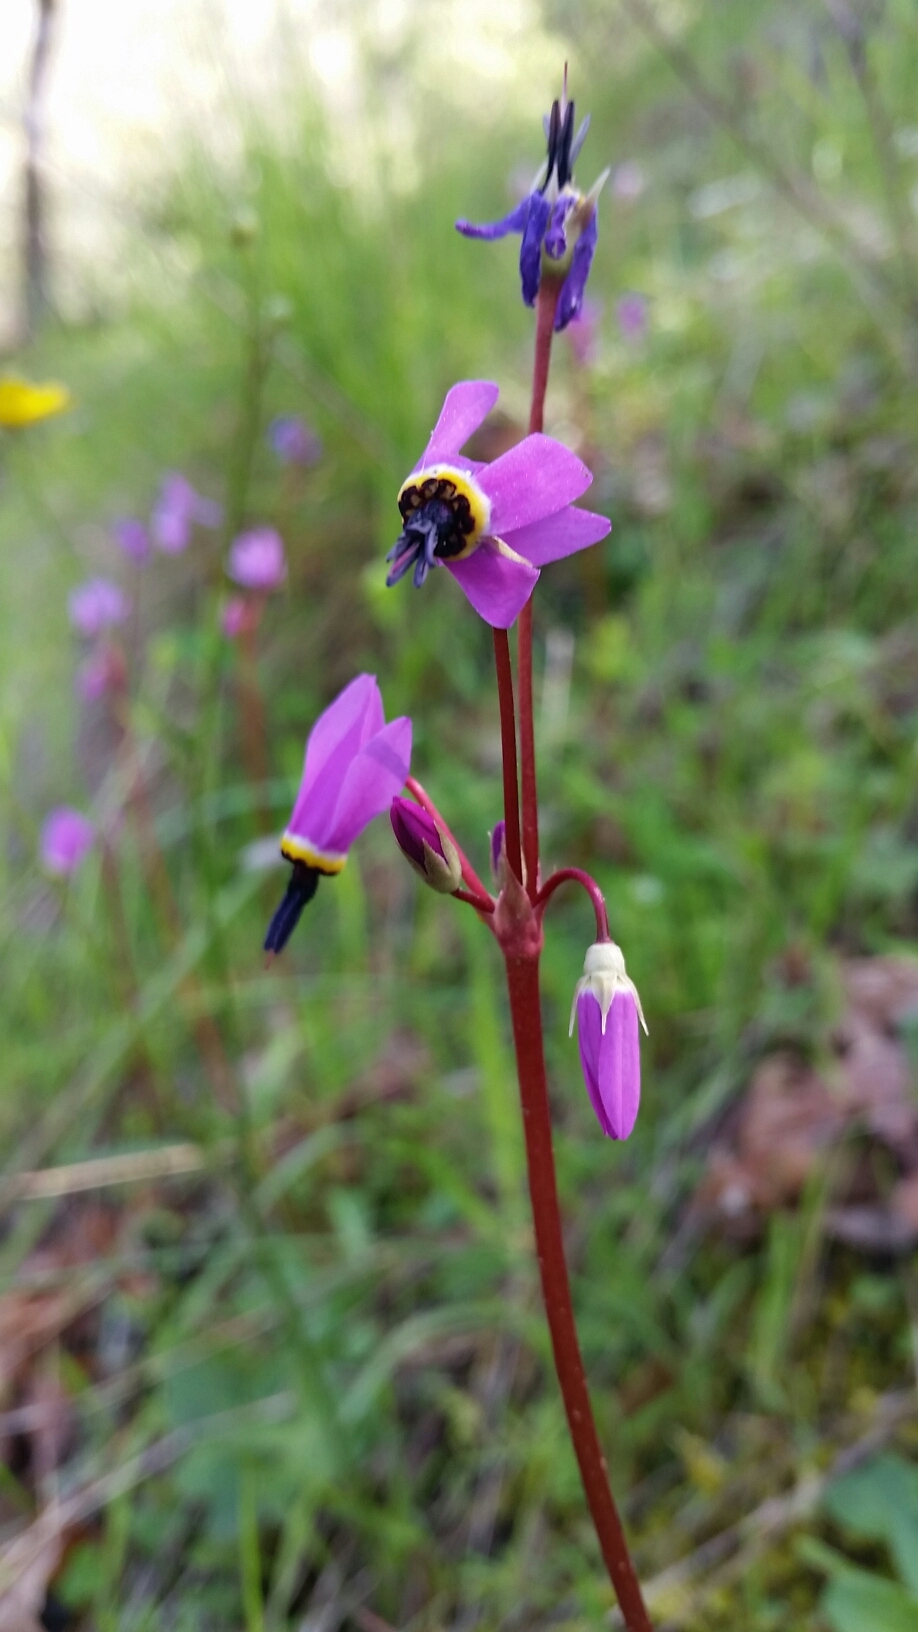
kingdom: Plantae
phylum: Tracheophyta
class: Magnoliopsida
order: Ericales
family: Primulaceae
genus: Dodecatheon
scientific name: Dodecatheon hendersonii
